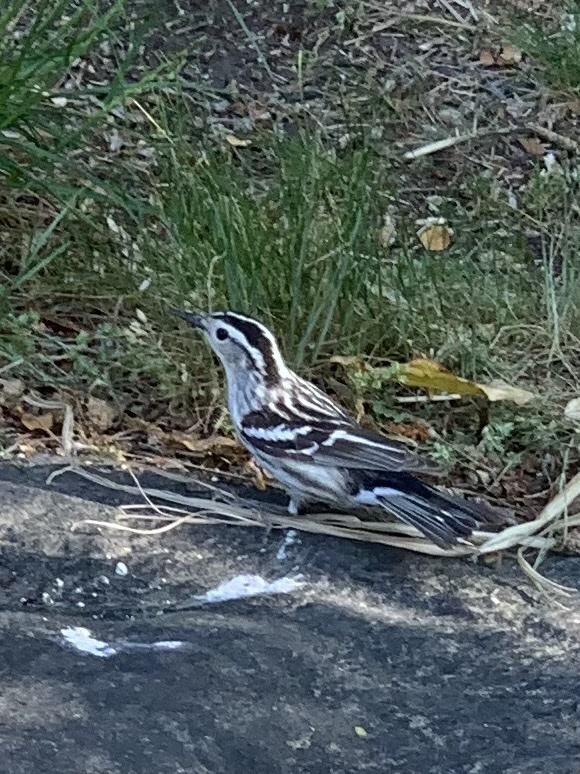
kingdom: Animalia
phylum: Chordata
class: Aves
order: Passeriformes
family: Parulidae
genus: Mniotilta
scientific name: Mniotilta varia
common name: Black-and-white warbler
